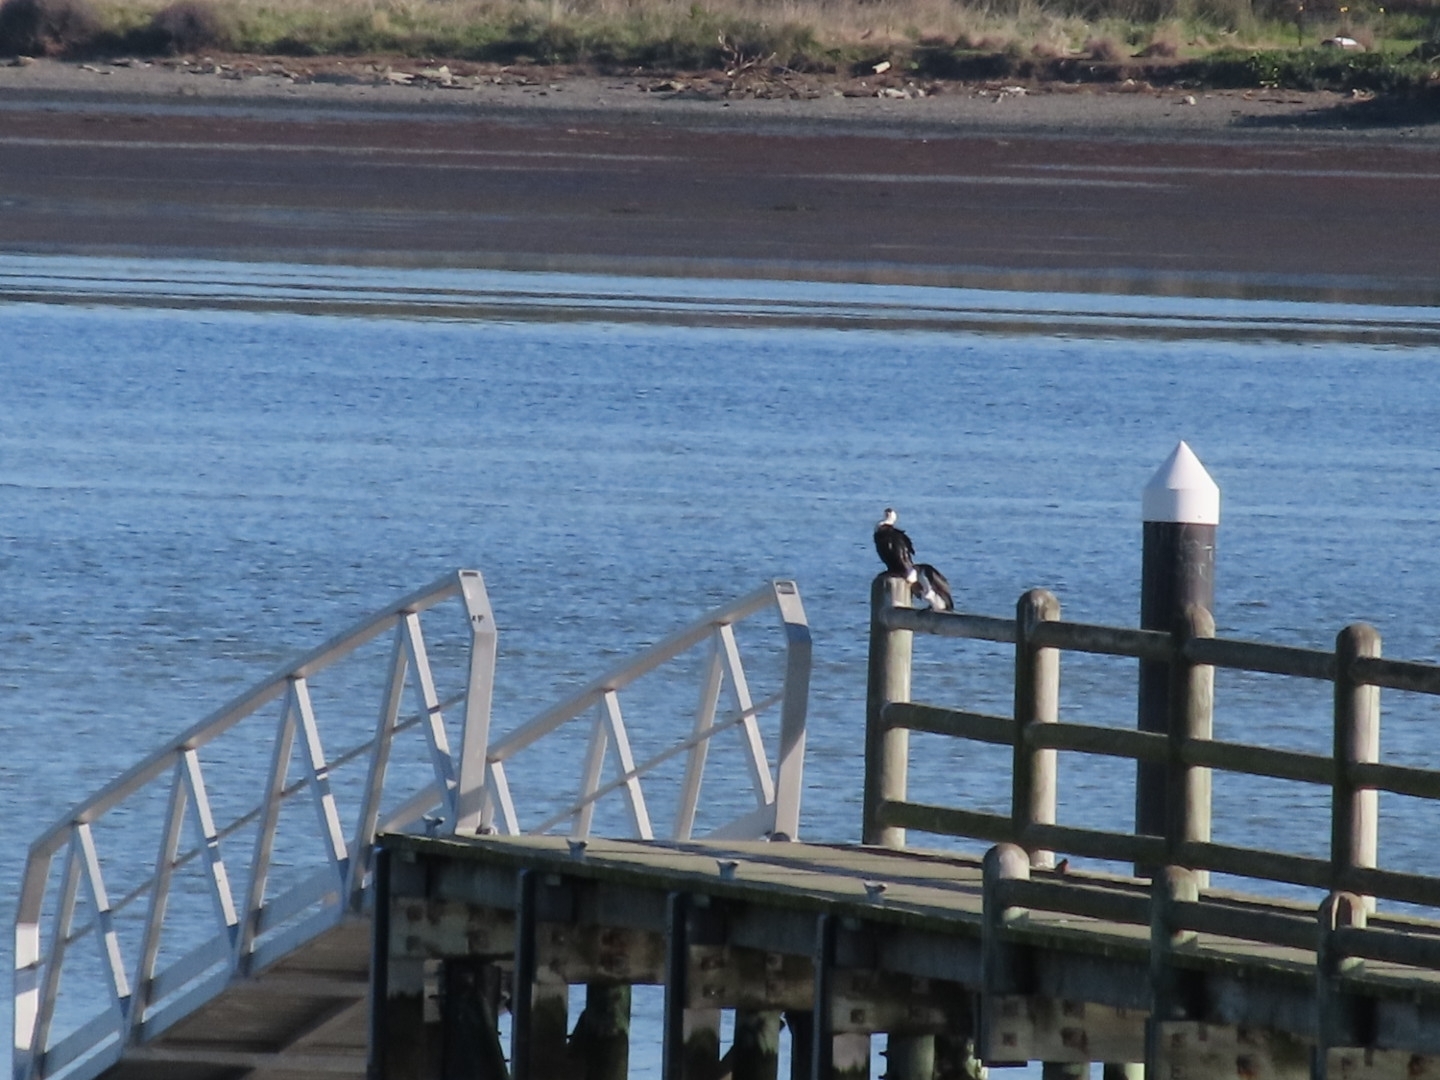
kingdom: Animalia
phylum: Chordata
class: Aves
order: Suliformes
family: Phalacrocoracidae
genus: Microcarbo
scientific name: Microcarbo melanoleucos
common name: Little pied cormorant
